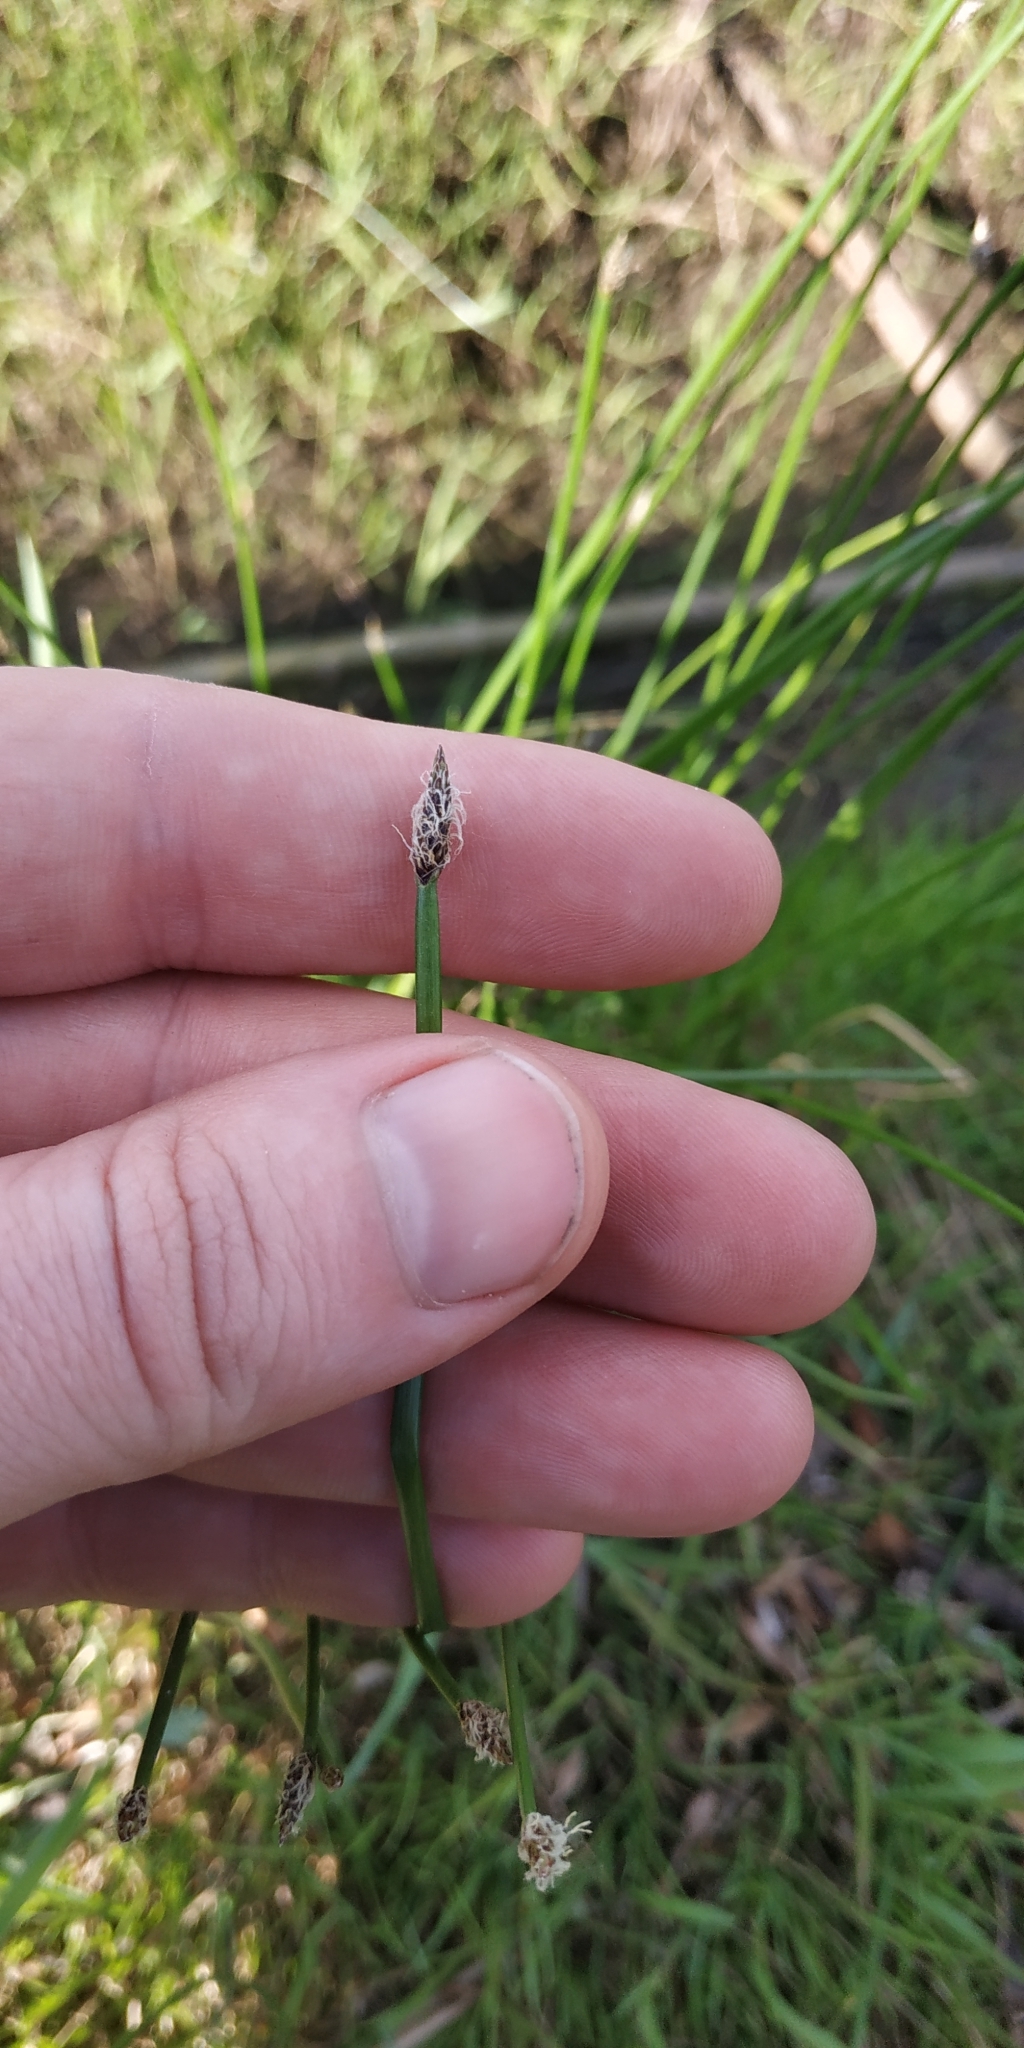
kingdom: Plantae
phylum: Tracheophyta
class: Liliopsida
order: Poales
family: Cyperaceae
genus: Eleocharis
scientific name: Eleocharis palustris
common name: Common spike-rush
